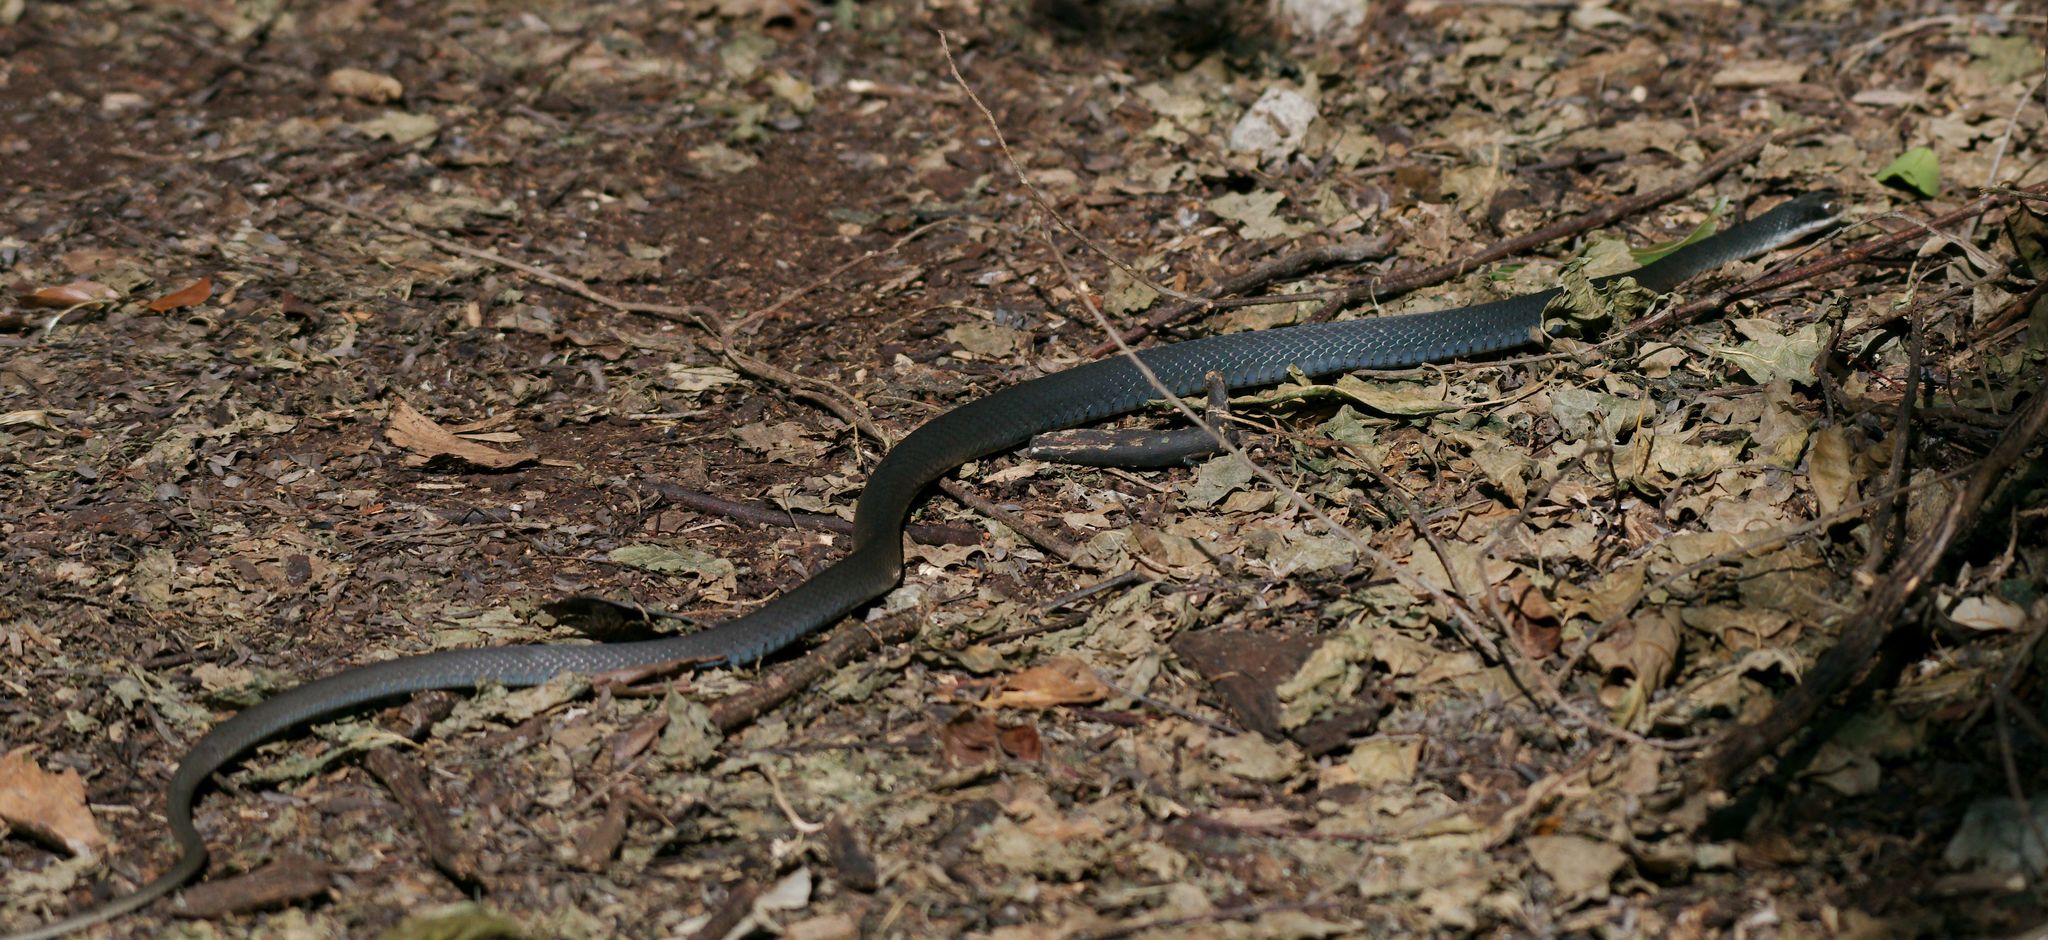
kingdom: Animalia
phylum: Chordata
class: Squamata
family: Colubridae
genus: Coluber
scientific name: Coluber constrictor
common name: Eastern racer
